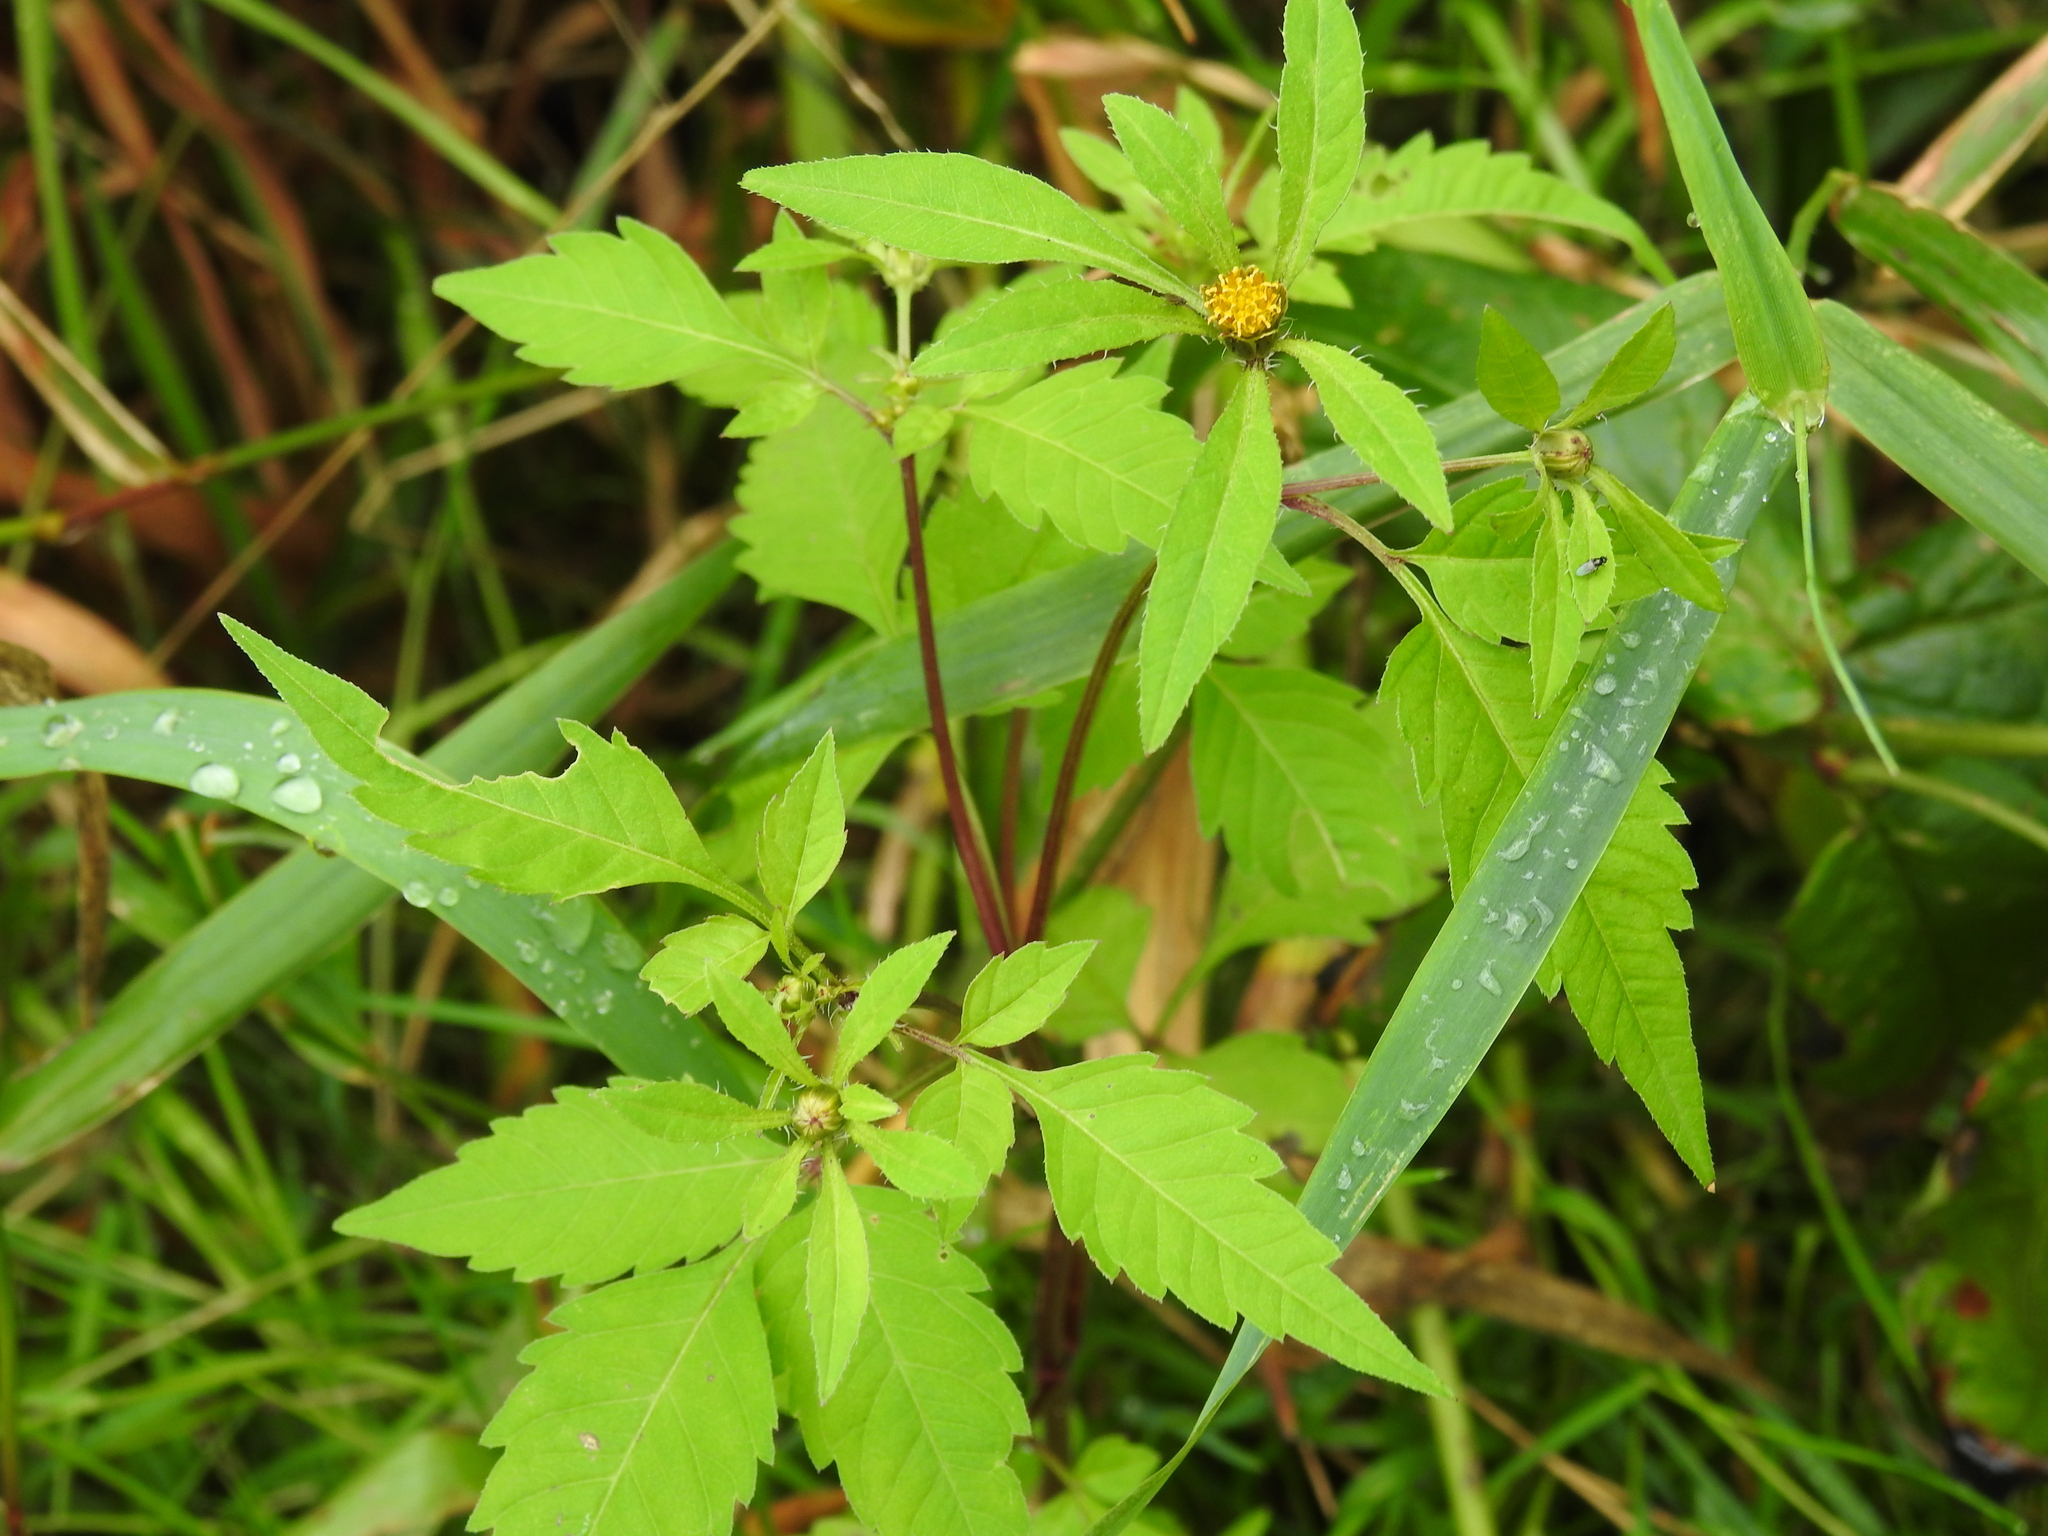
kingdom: Plantae
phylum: Tracheophyta
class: Magnoliopsida
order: Asterales
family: Asteraceae
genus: Bidens
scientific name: Bidens frondosa
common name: Beggarticks
